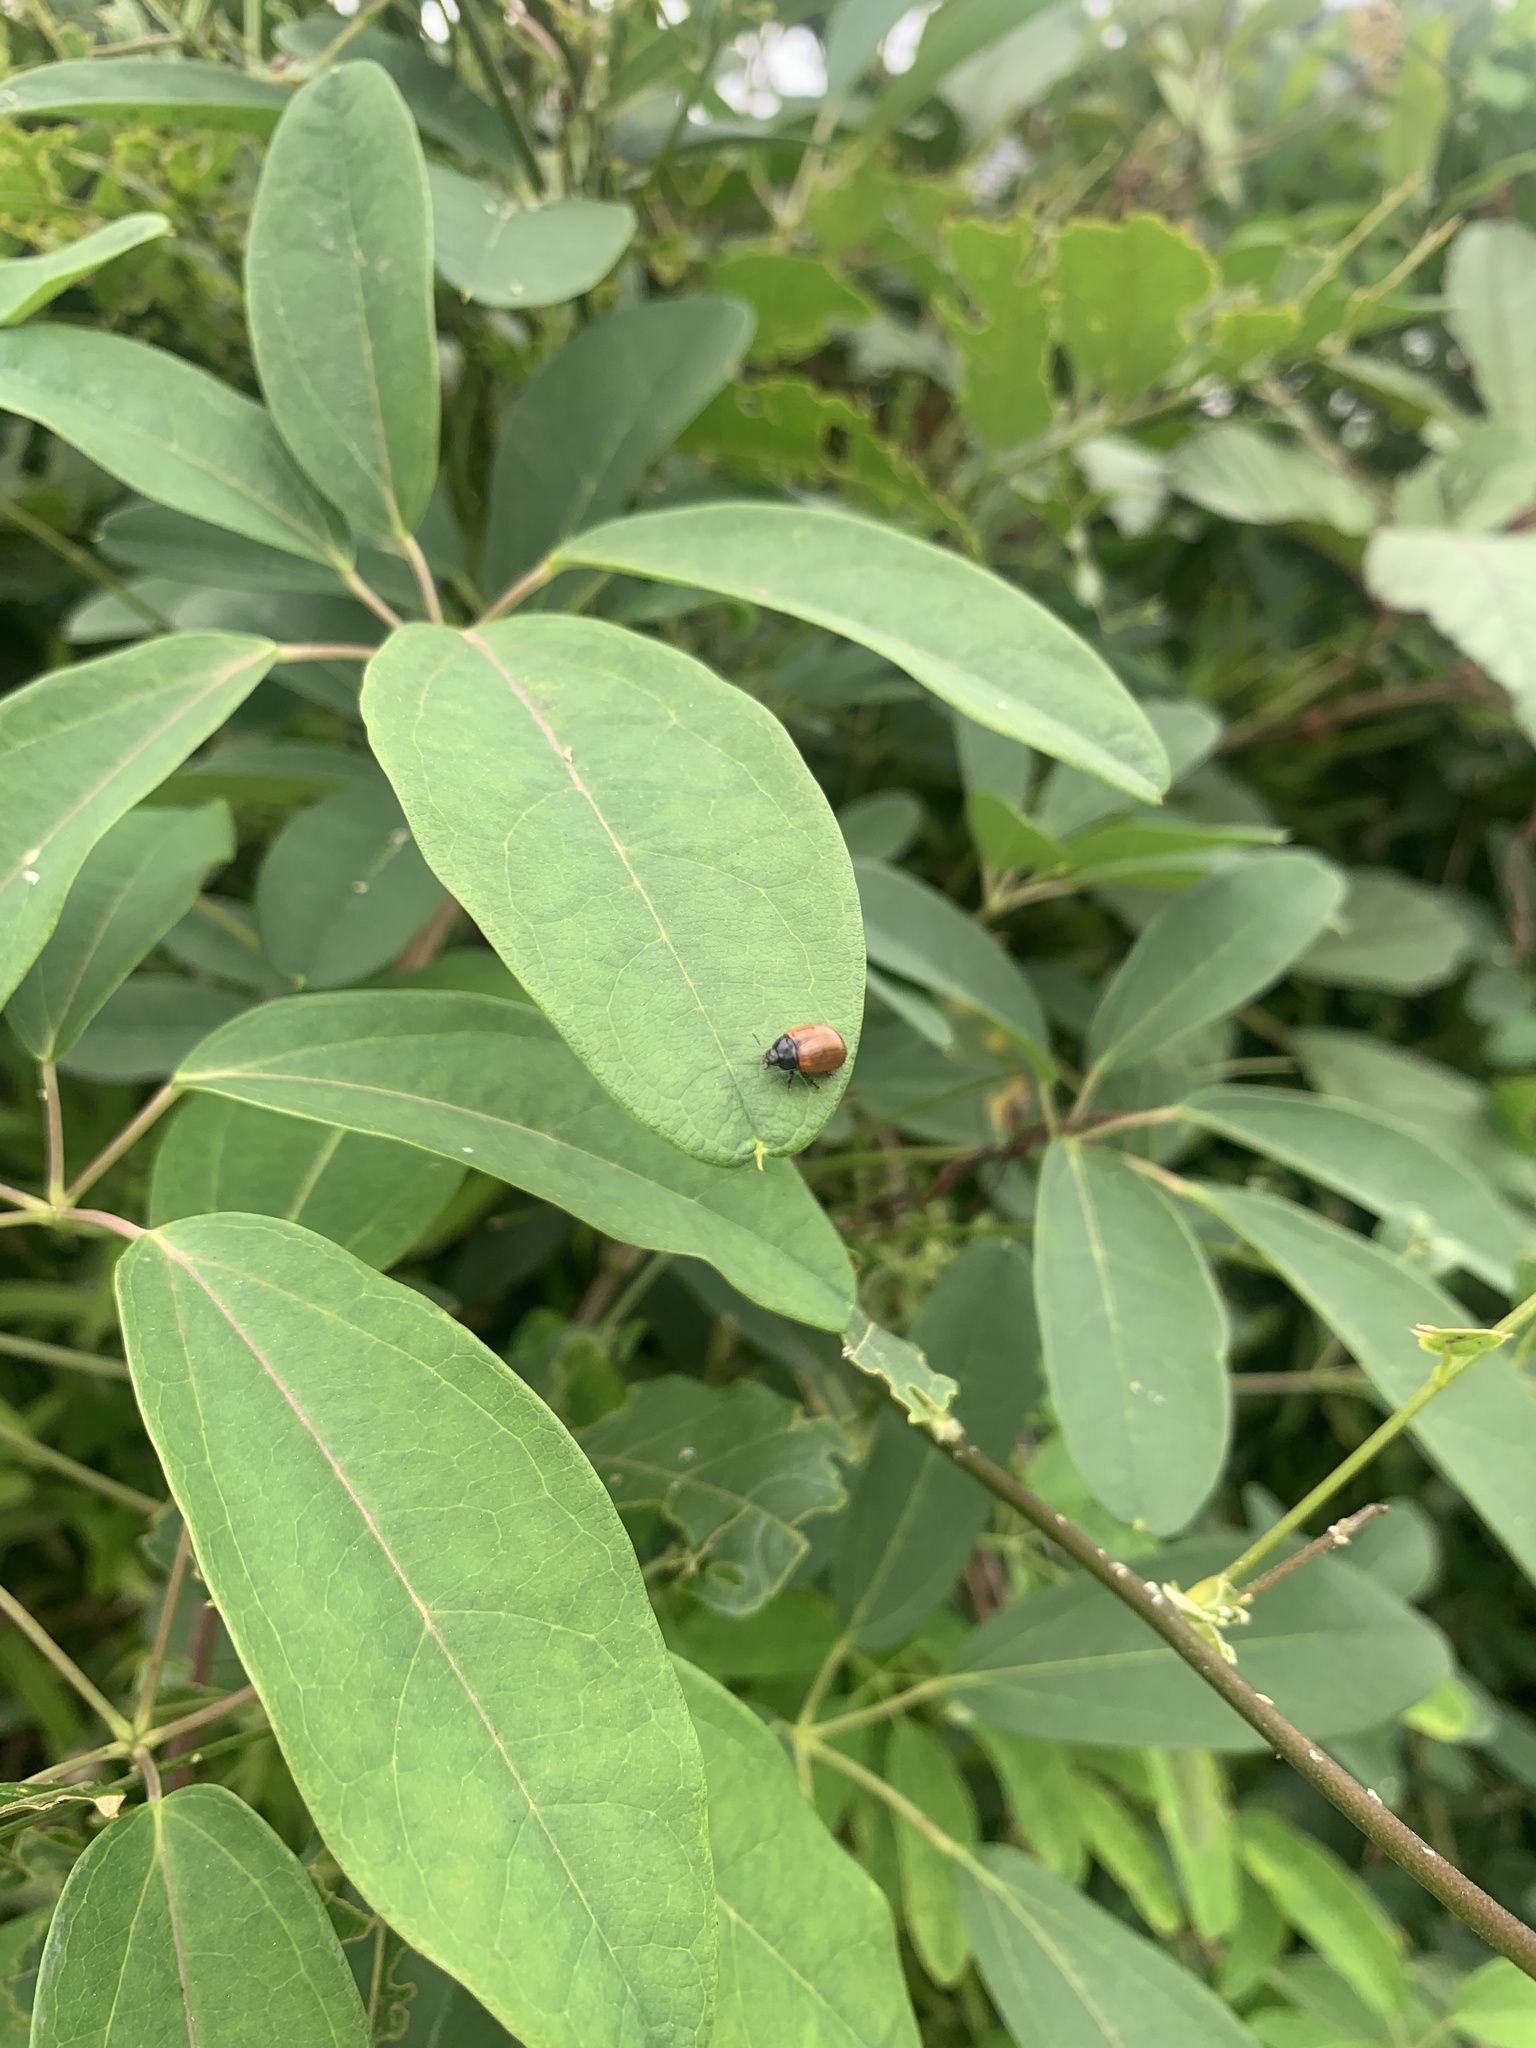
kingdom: Animalia
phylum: Arthropoda
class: Insecta
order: Coleoptera
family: Chrysomelidae
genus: Gonioctena
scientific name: Gonioctena
